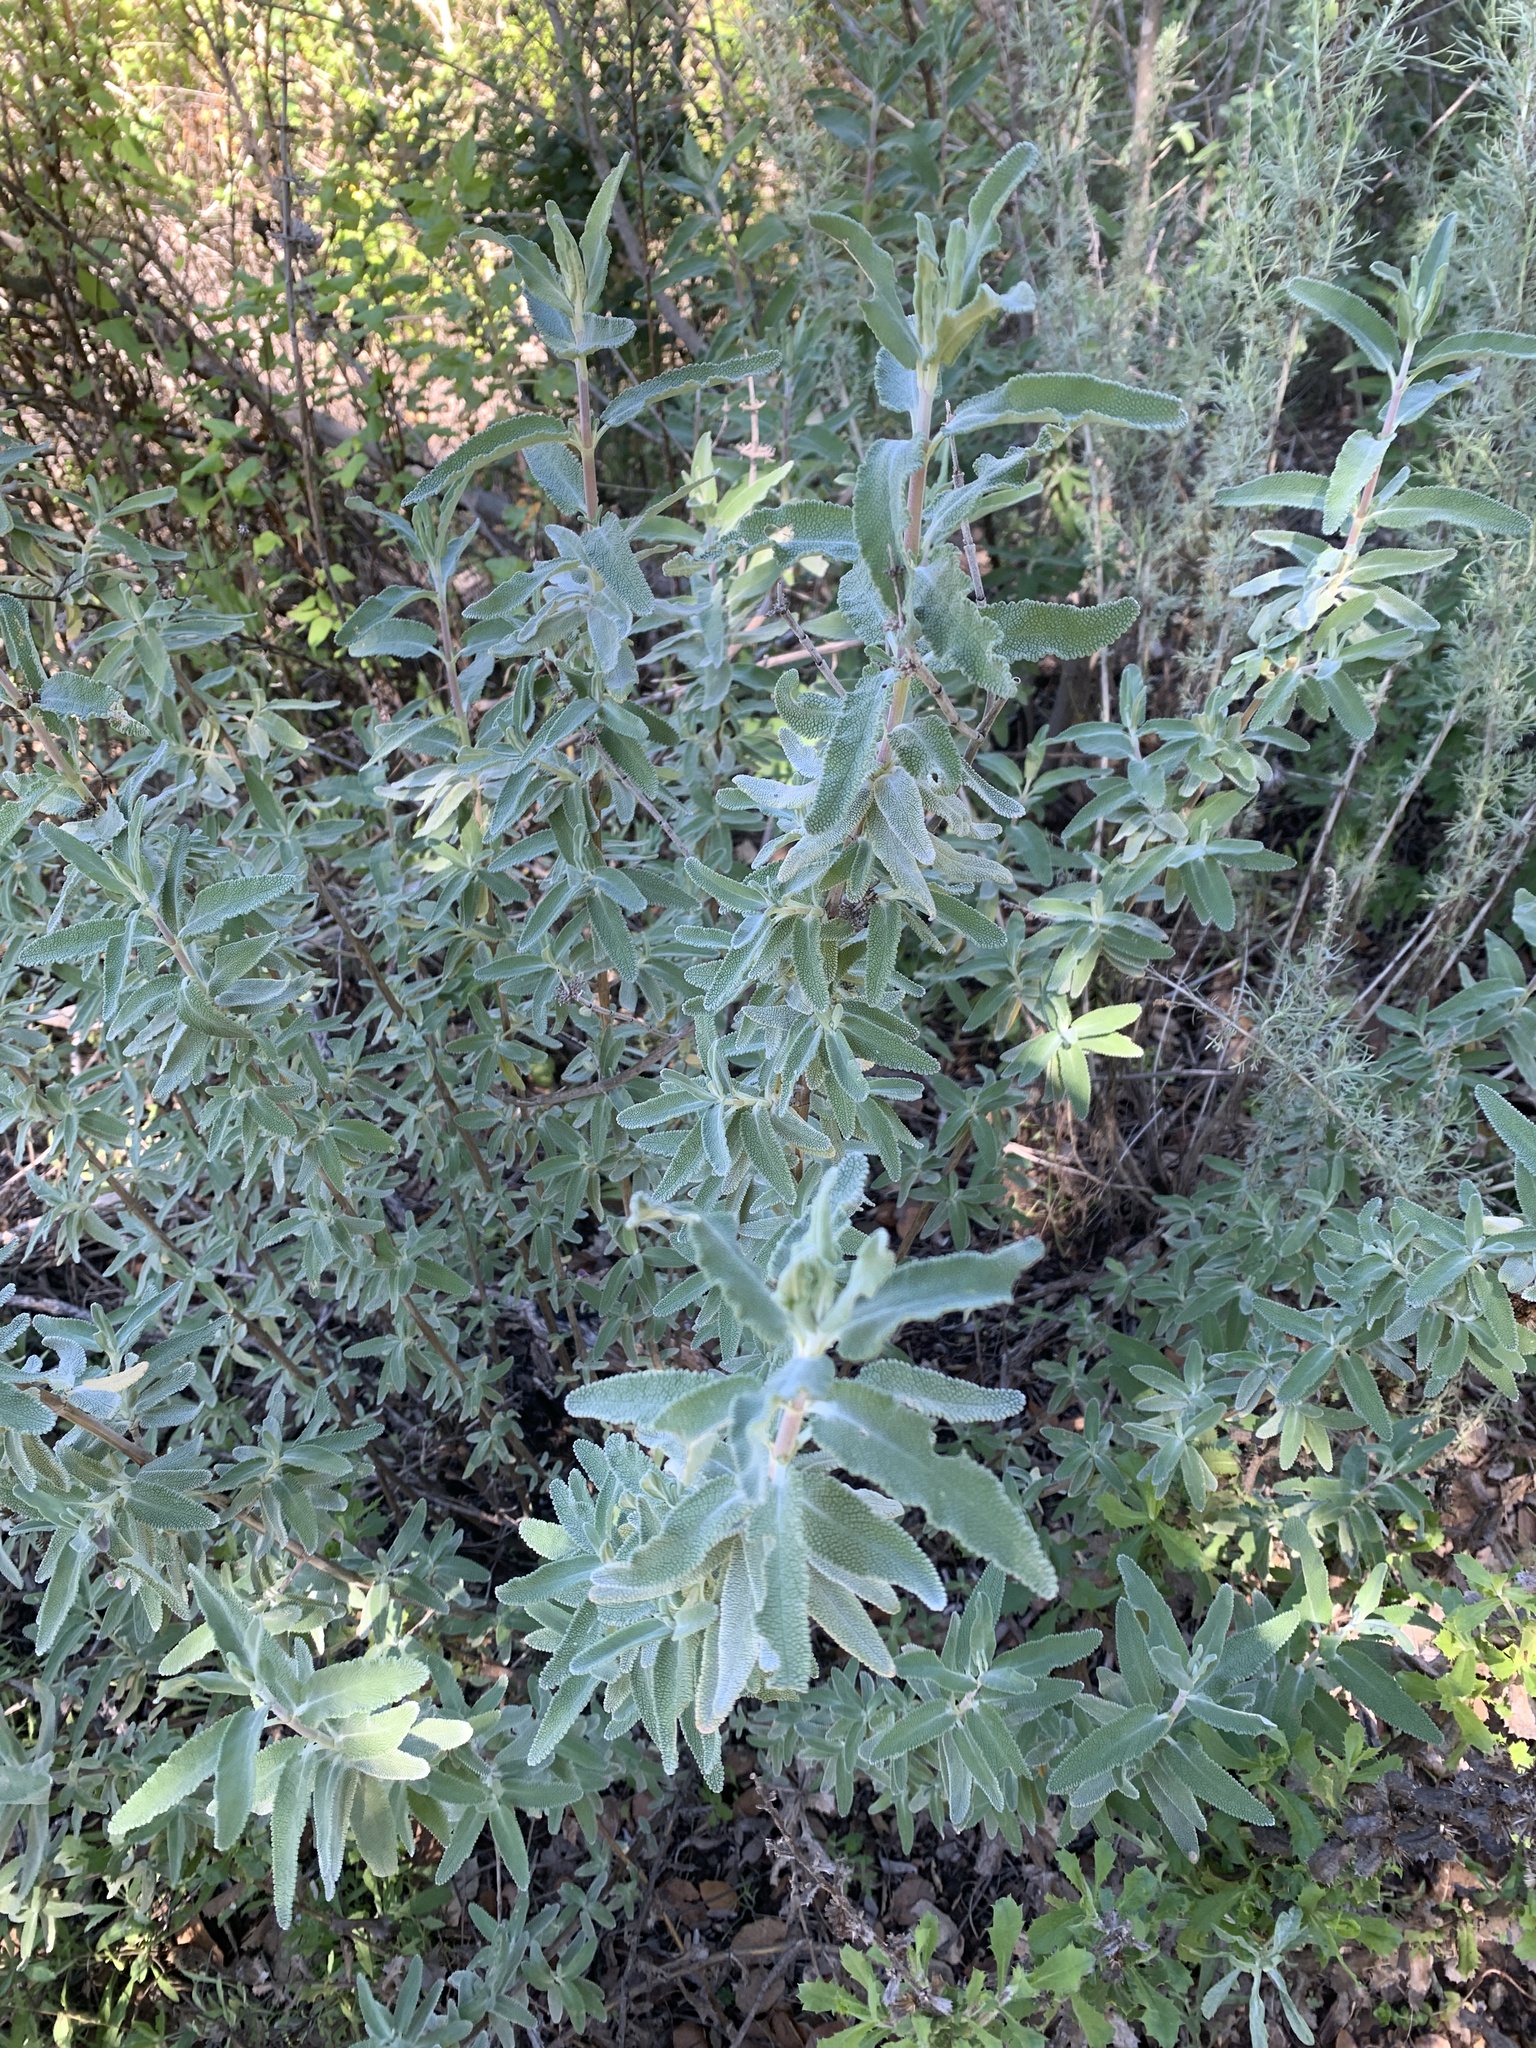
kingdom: Plantae
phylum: Tracheophyta
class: Magnoliopsida
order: Lamiales
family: Lamiaceae
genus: Salvia
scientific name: Salvia leucophylla
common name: Purple sage
